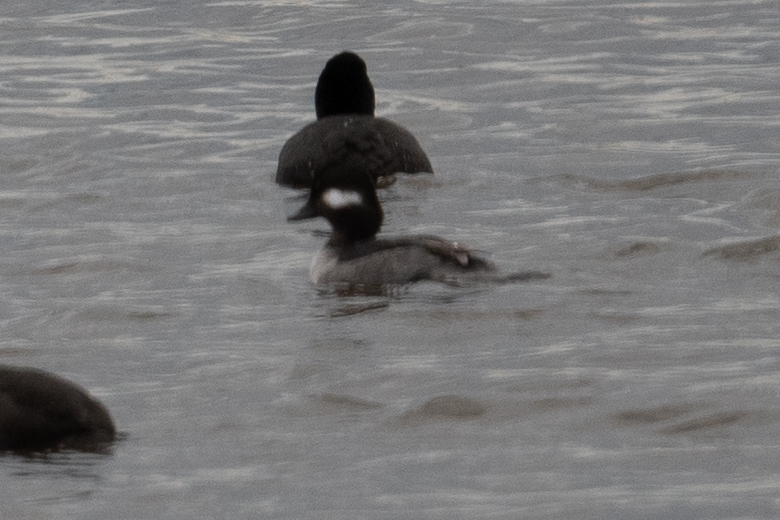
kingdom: Animalia
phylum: Chordata
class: Aves
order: Anseriformes
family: Anatidae
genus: Bucephala
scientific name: Bucephala albeola
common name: Bufflehead
